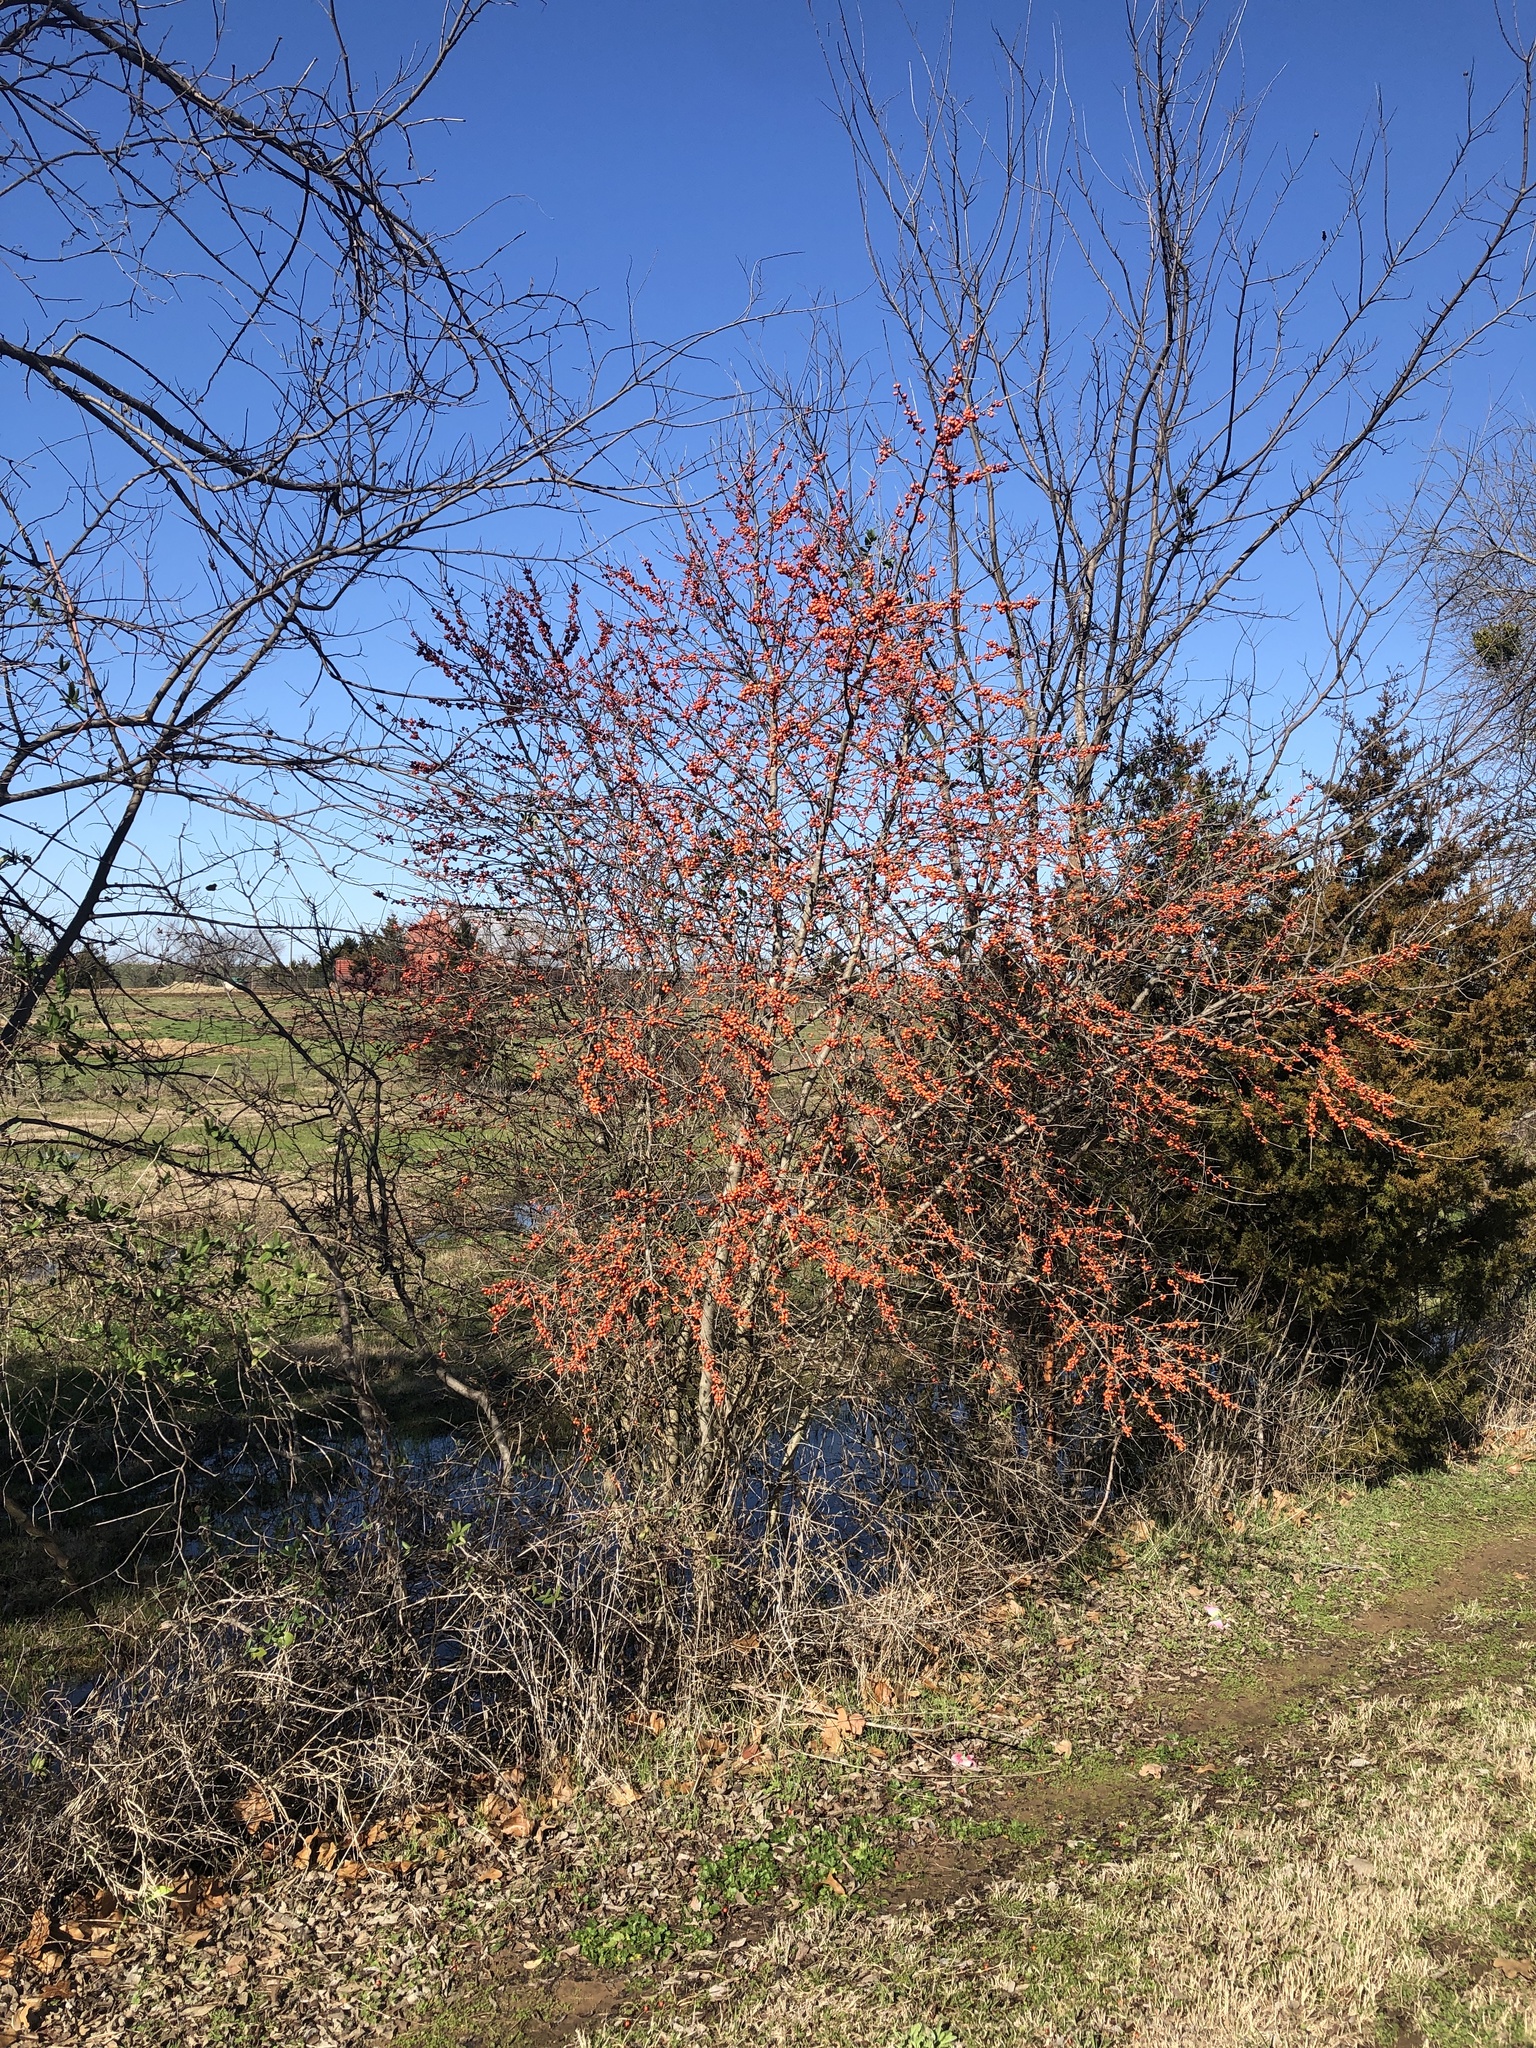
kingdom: Plantae
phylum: Tracheophyta
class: Magnoliopsida
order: Aquifoliales
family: Aquifoliaceae
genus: Ilex
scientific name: Ilex decidua
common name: Possum-haw
